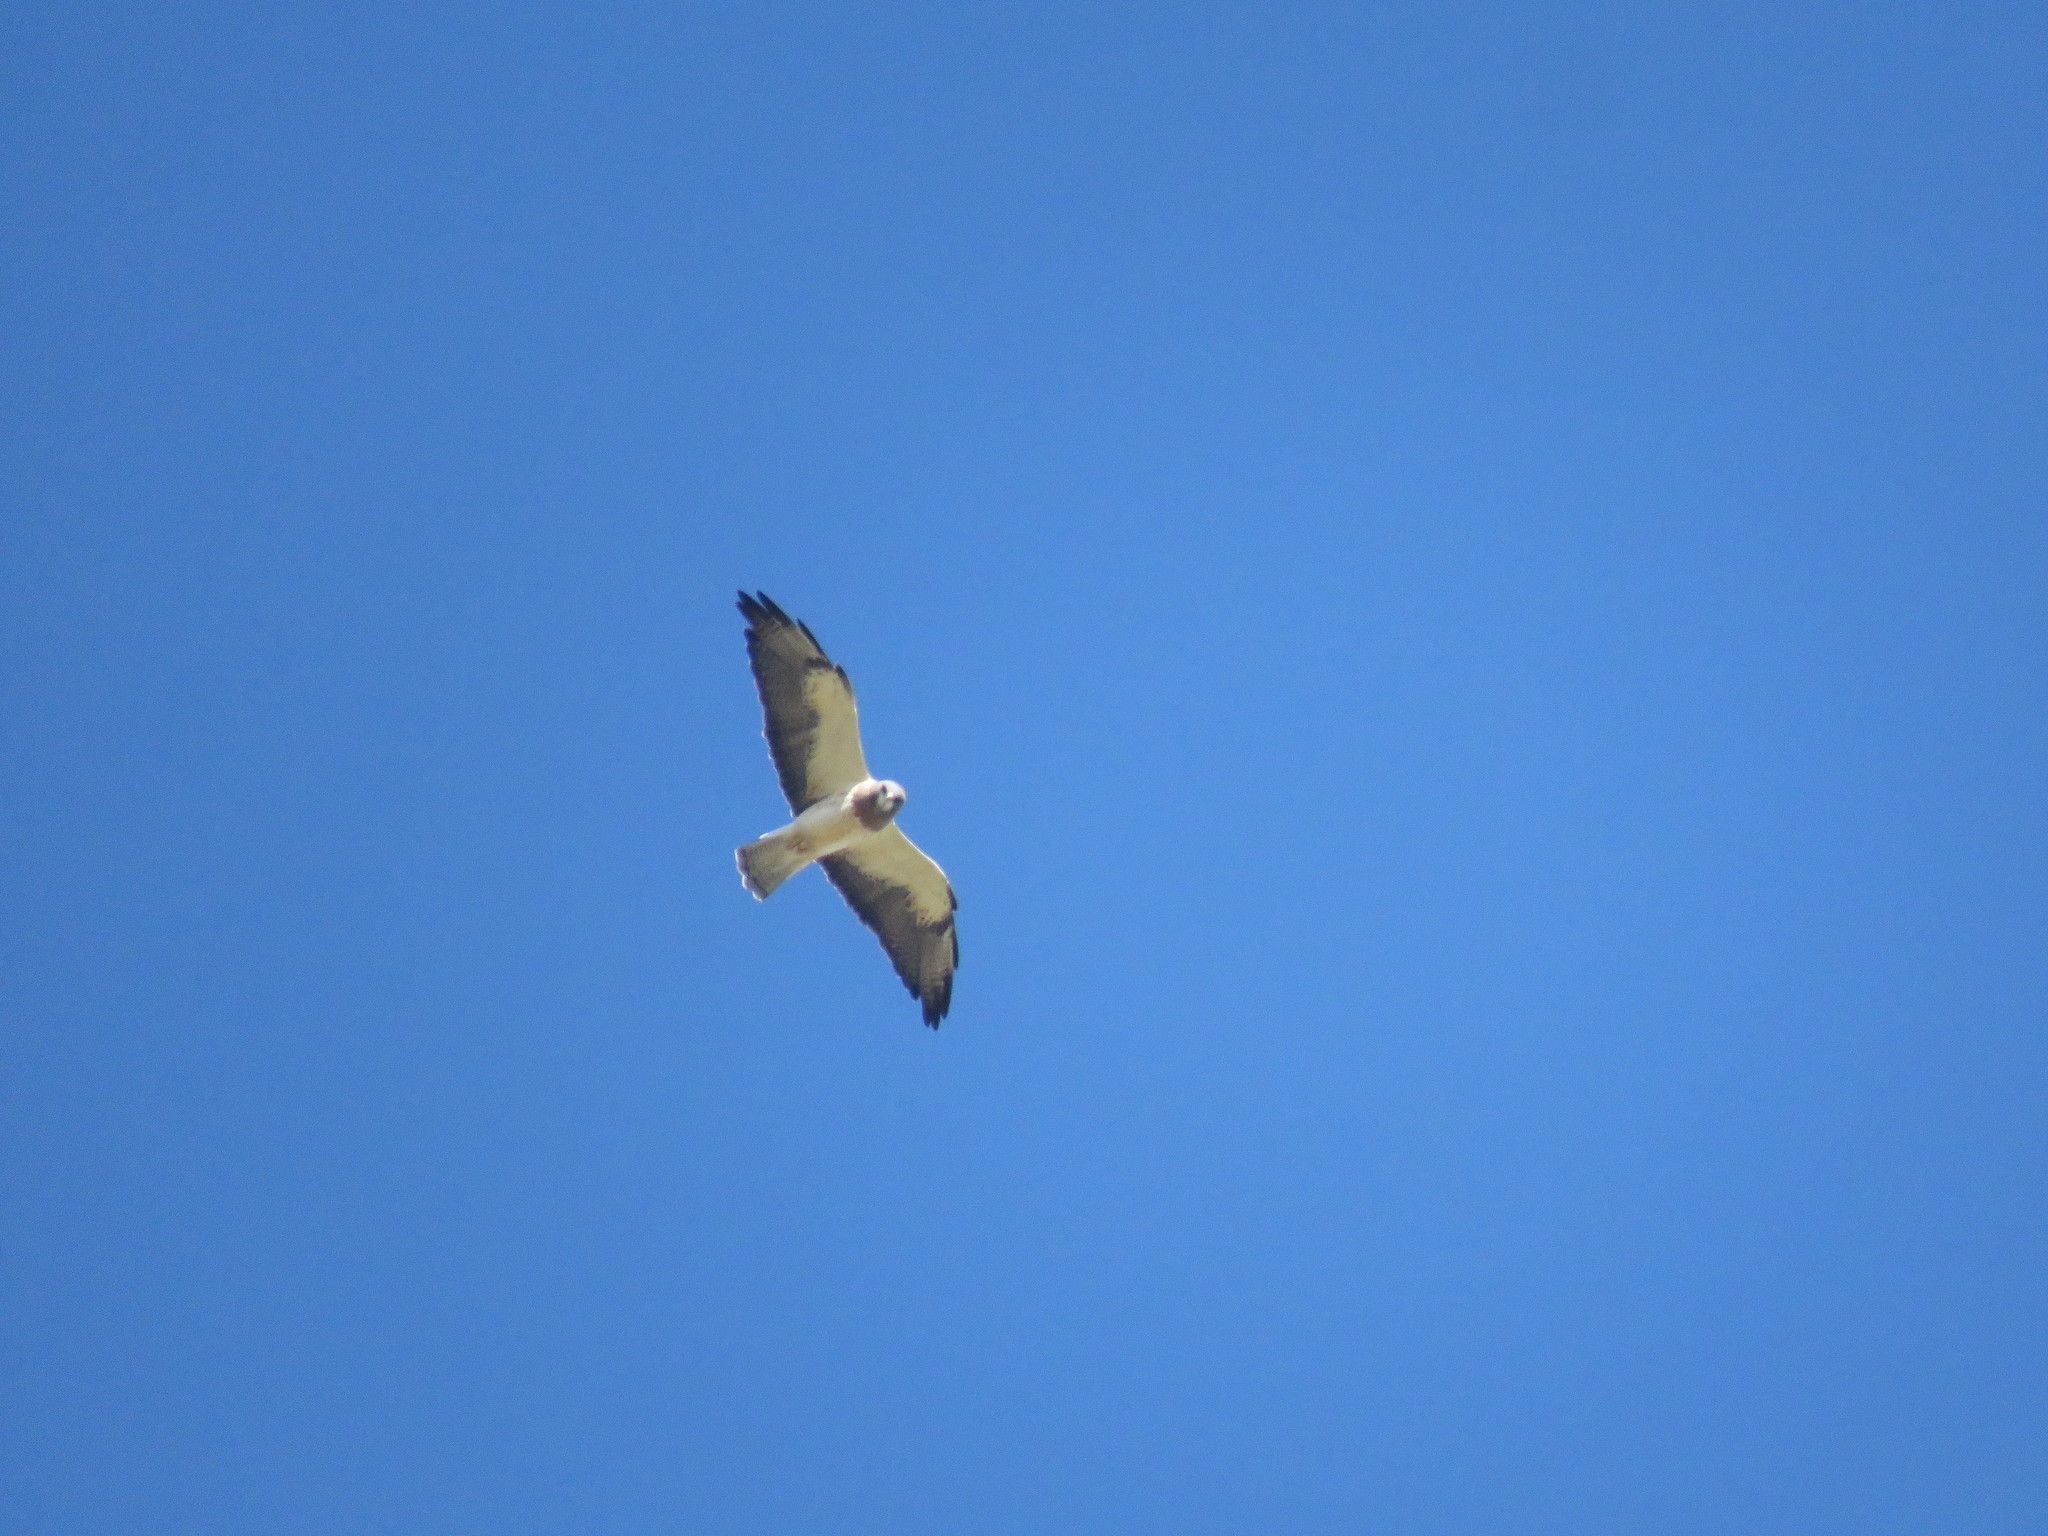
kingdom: Animalia
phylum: Chordata
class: Aves
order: Accipitriformes
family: Accipitridae
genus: Buteo
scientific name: Buteo swainsoni
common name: Swainson's hawk
